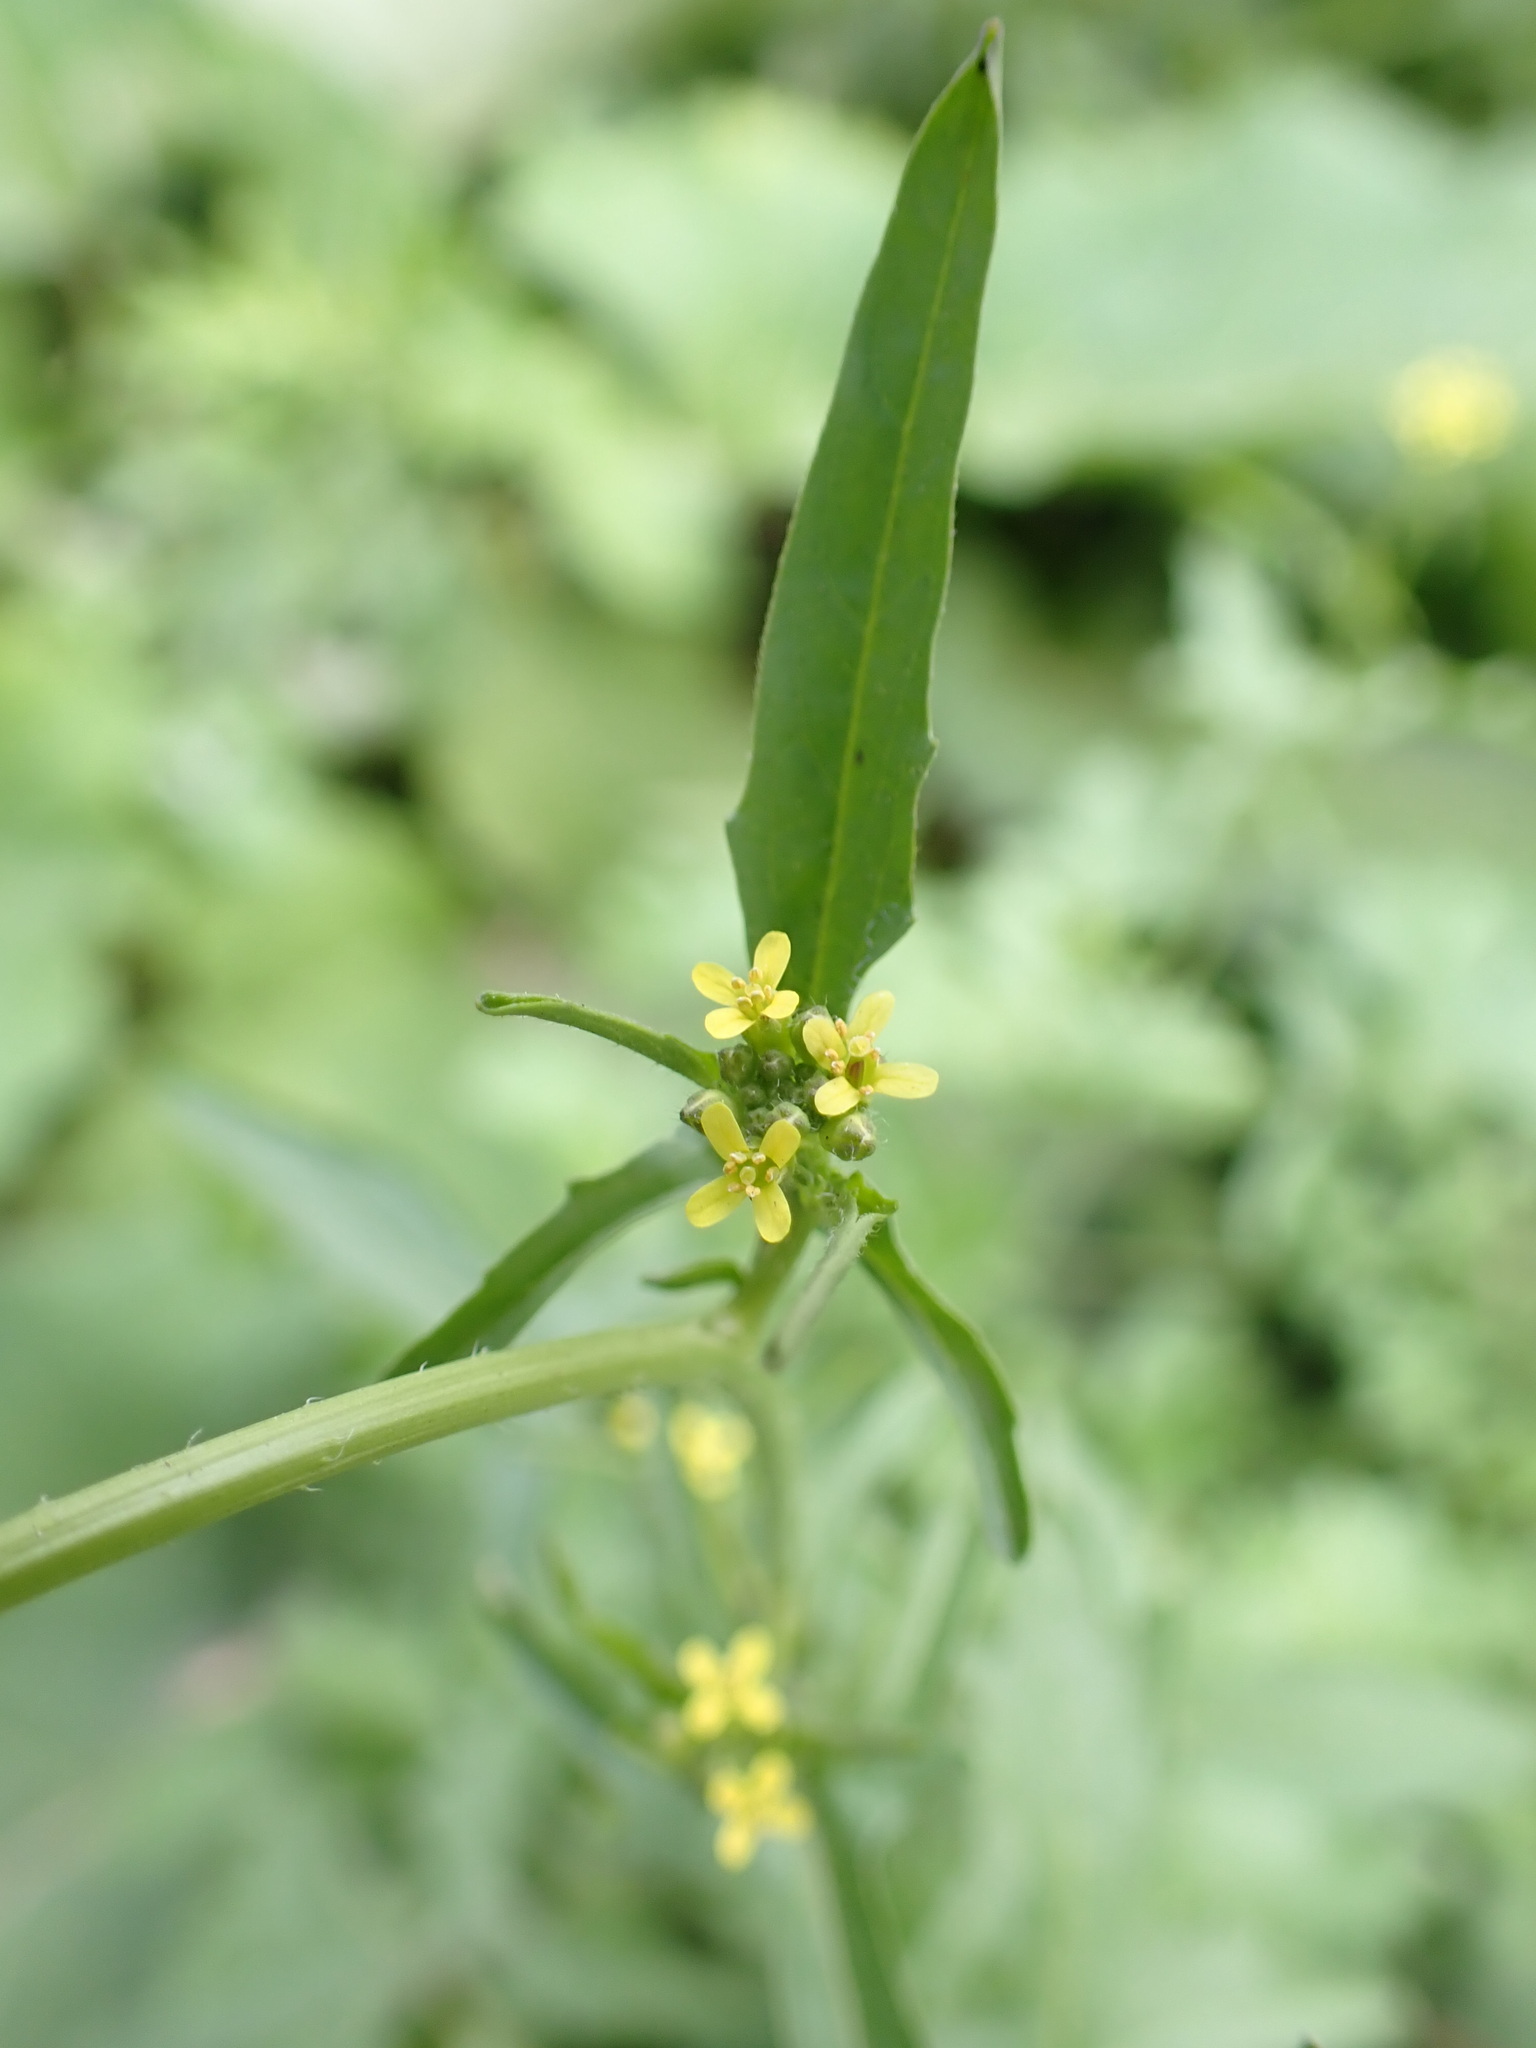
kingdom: Plantae
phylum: Tracheophyta
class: Magnoliopsida
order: Brassicales
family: Brassicaceae
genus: Sisymbrium
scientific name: Sisymbrium officinale
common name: Hedge mustard
